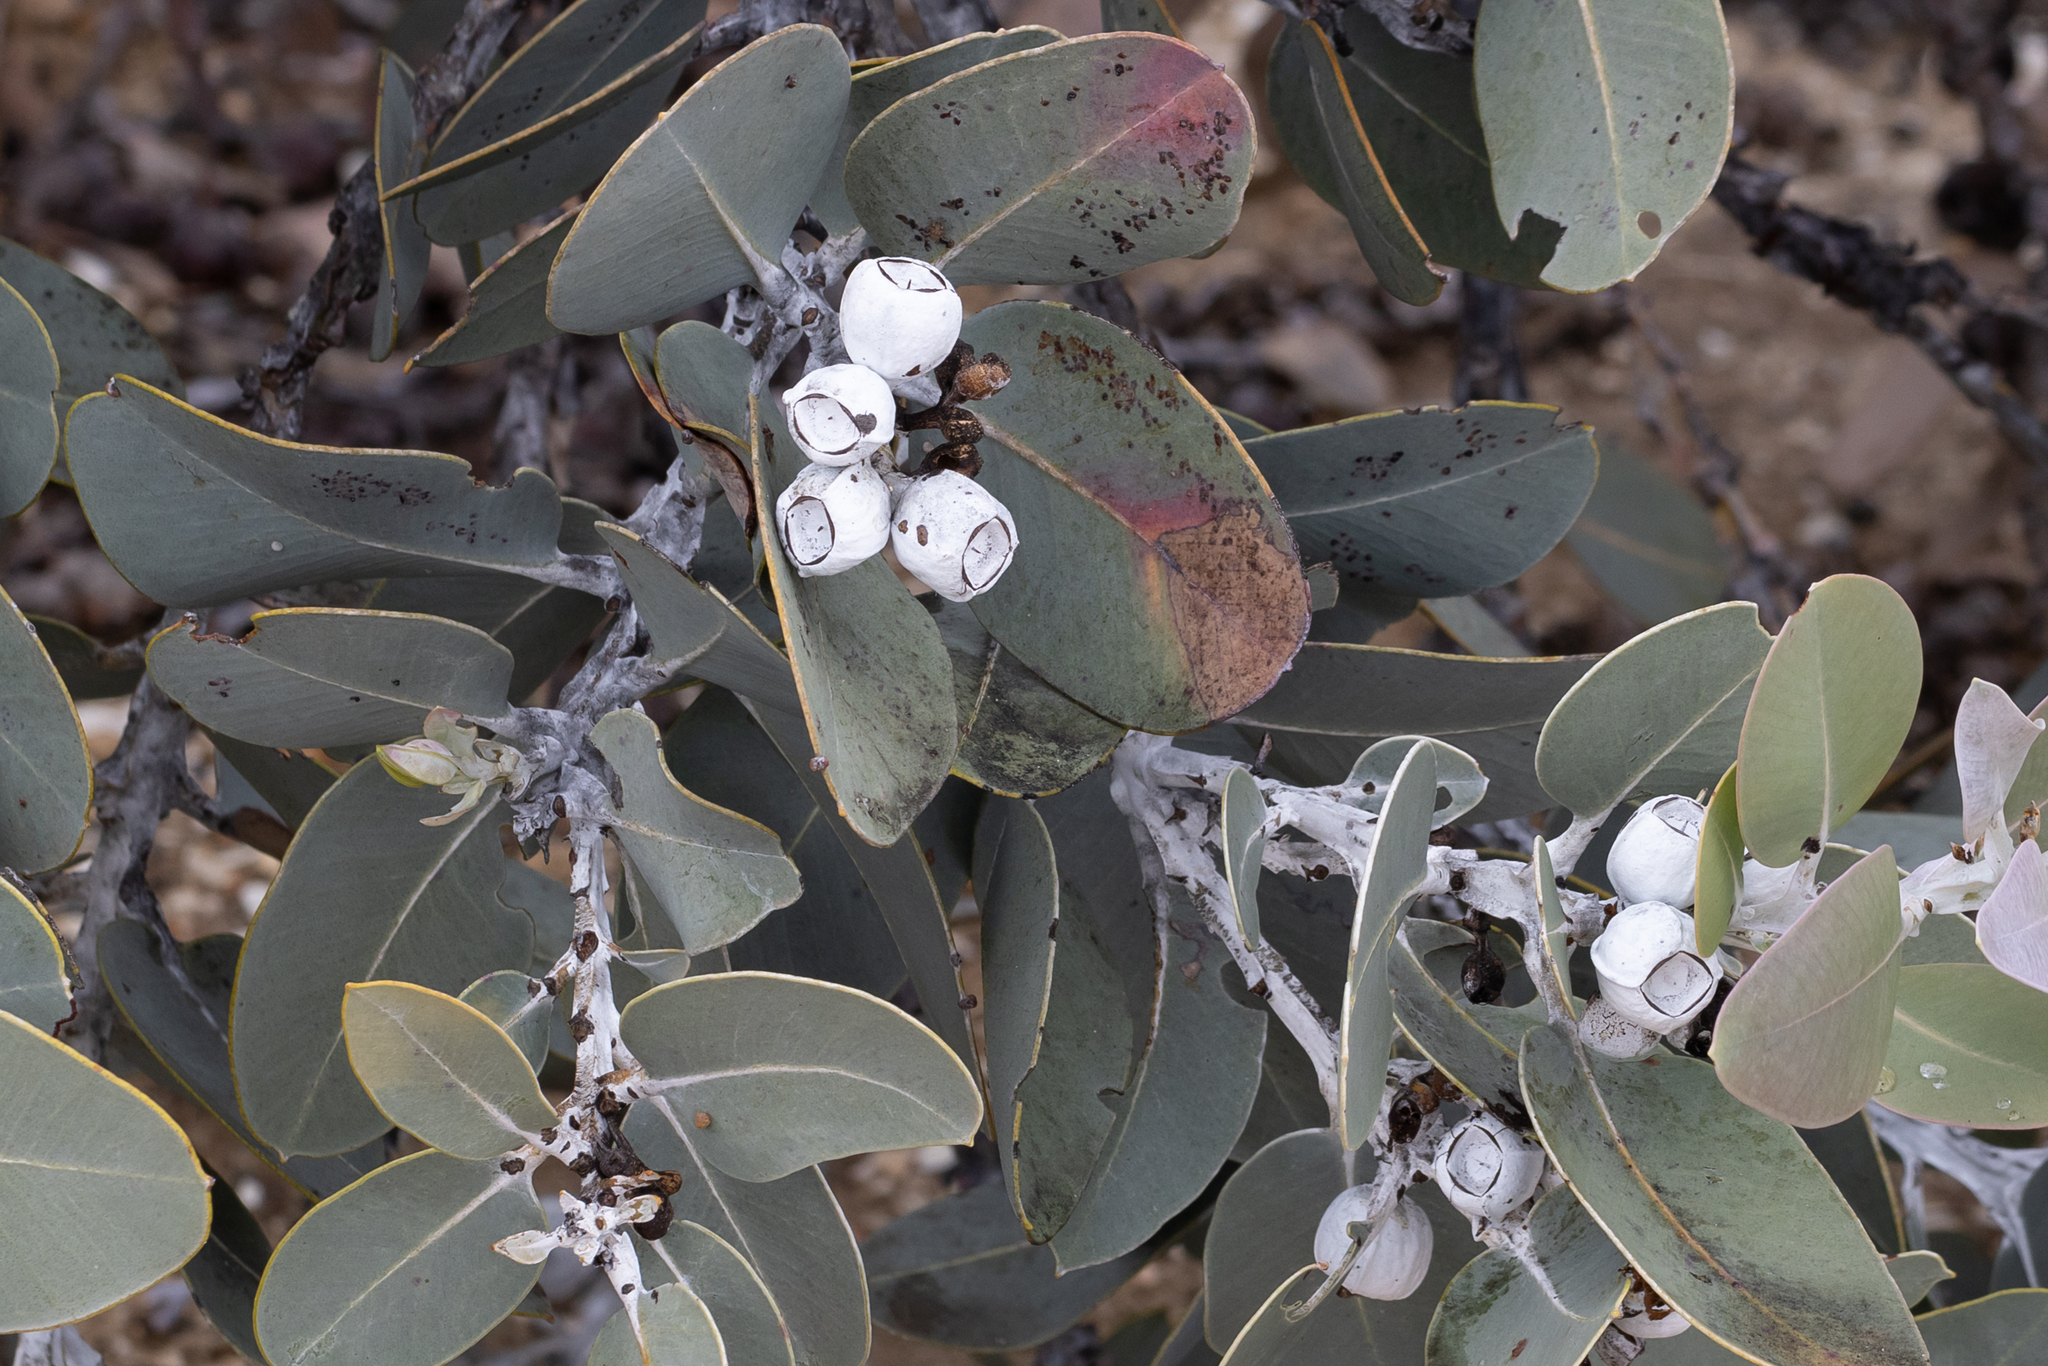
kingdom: Plantae
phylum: Tracheophyta
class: Magnoliopsida
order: Myrtales
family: Myrtaceae
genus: Eucalyptus
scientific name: Eucalyptus tetragona
